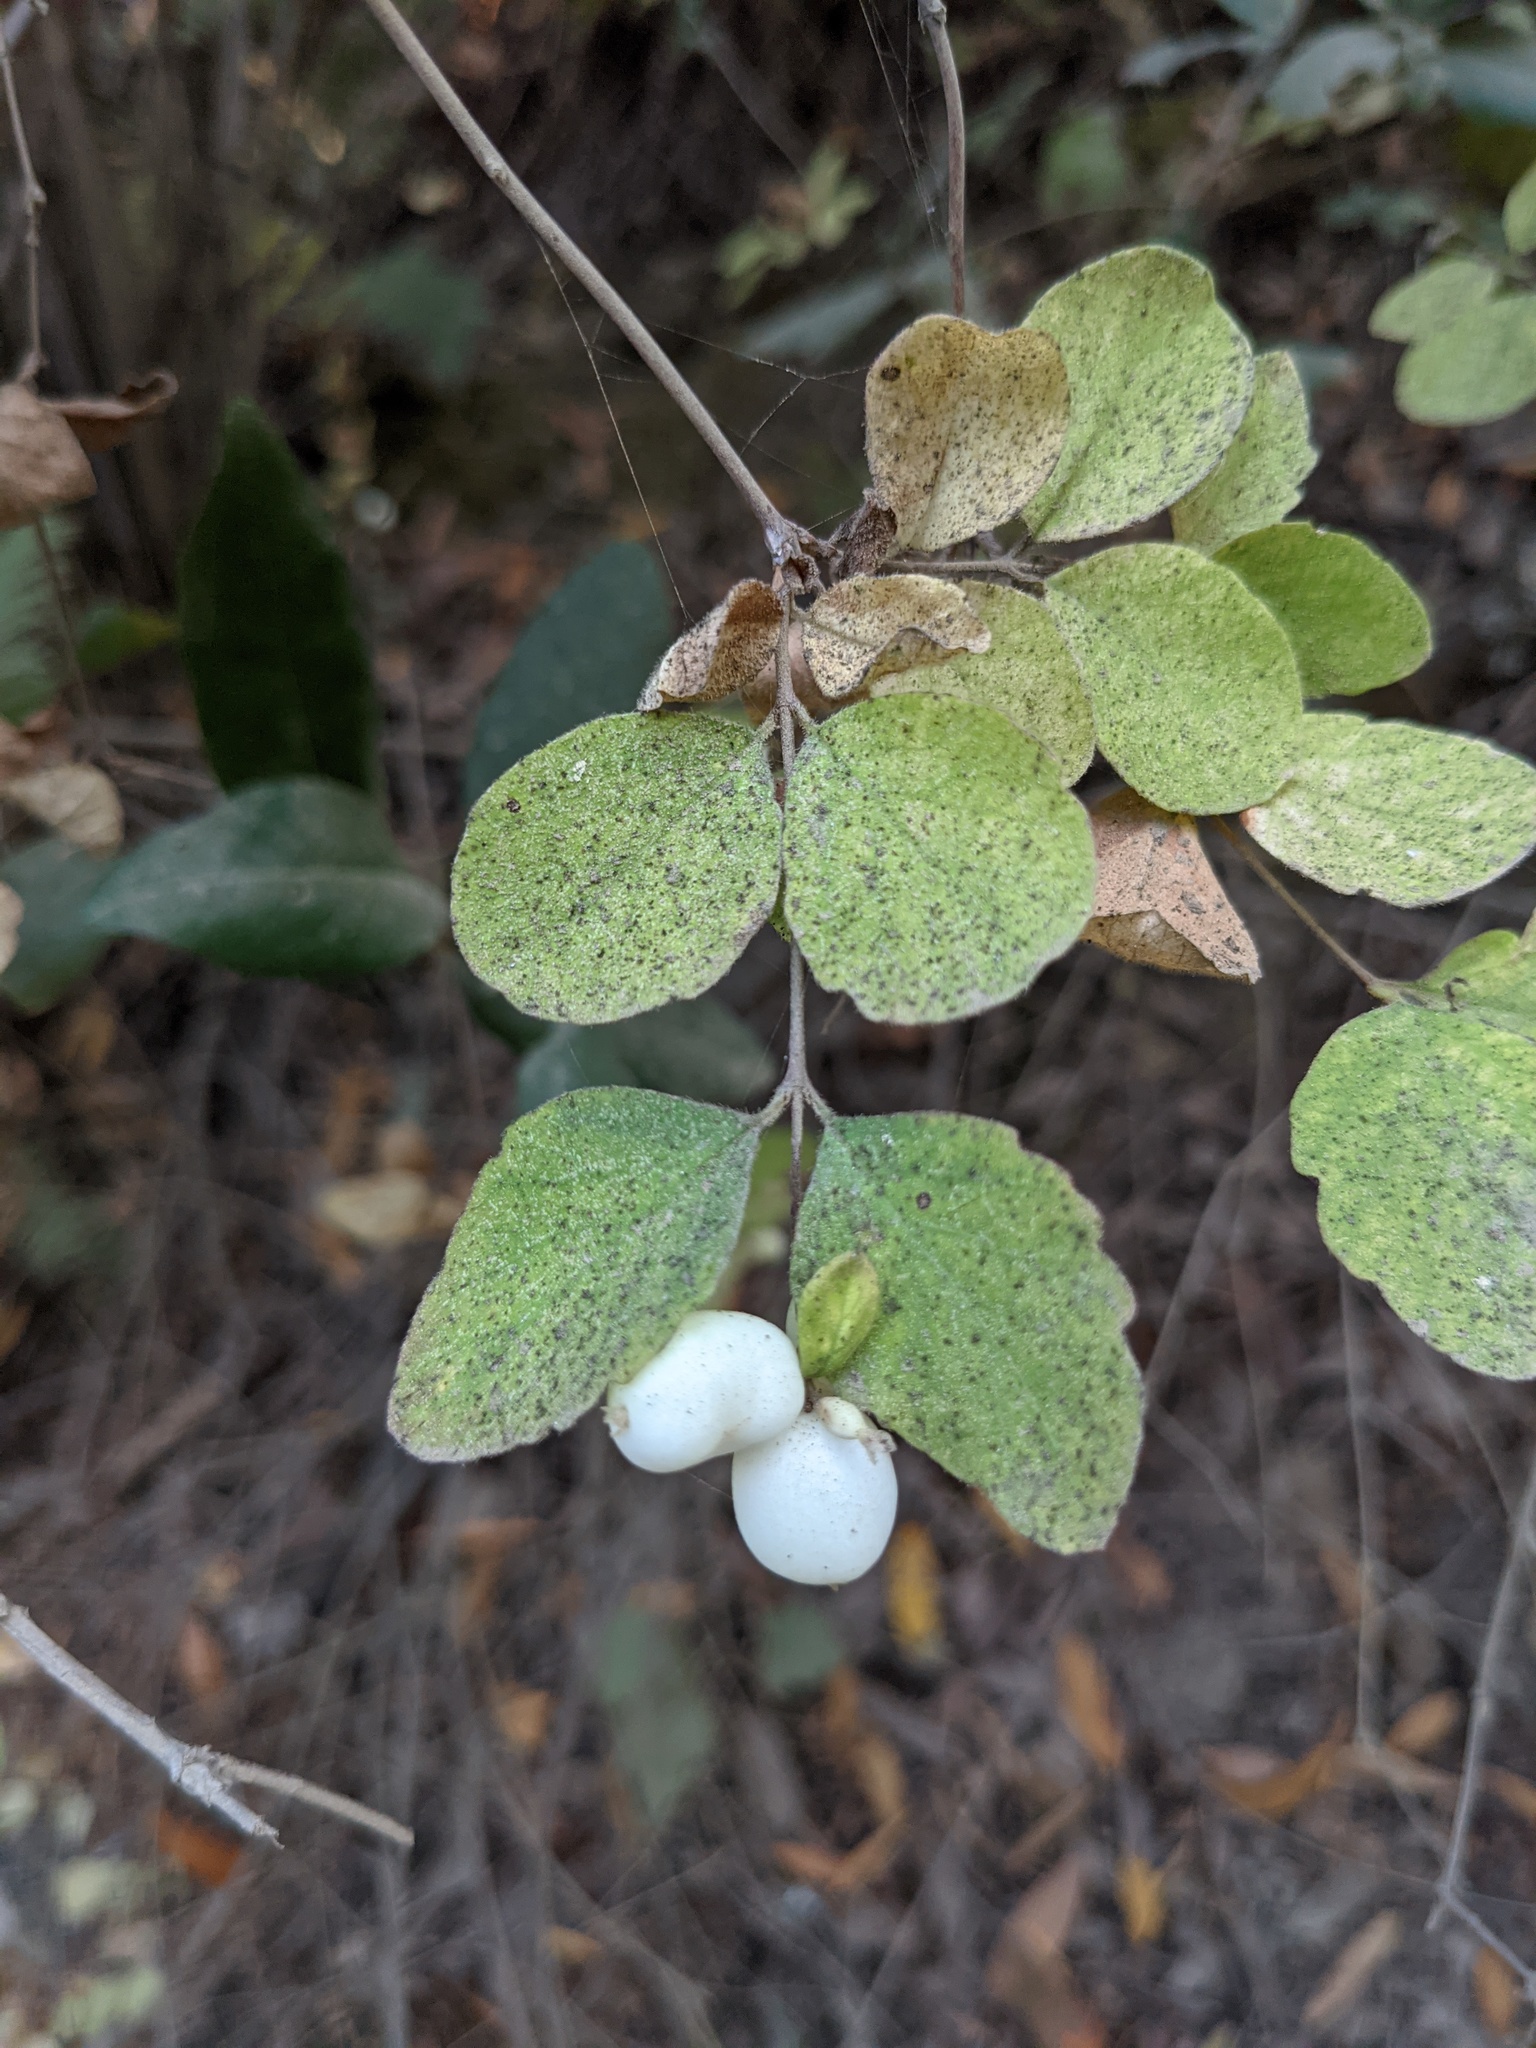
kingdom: Plantae
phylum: Tracheophyta
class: Magnoliopsida
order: Dipsacales
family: Caprifoliaceae
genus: Symphoricarpos
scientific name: Symphoricarpos albus
